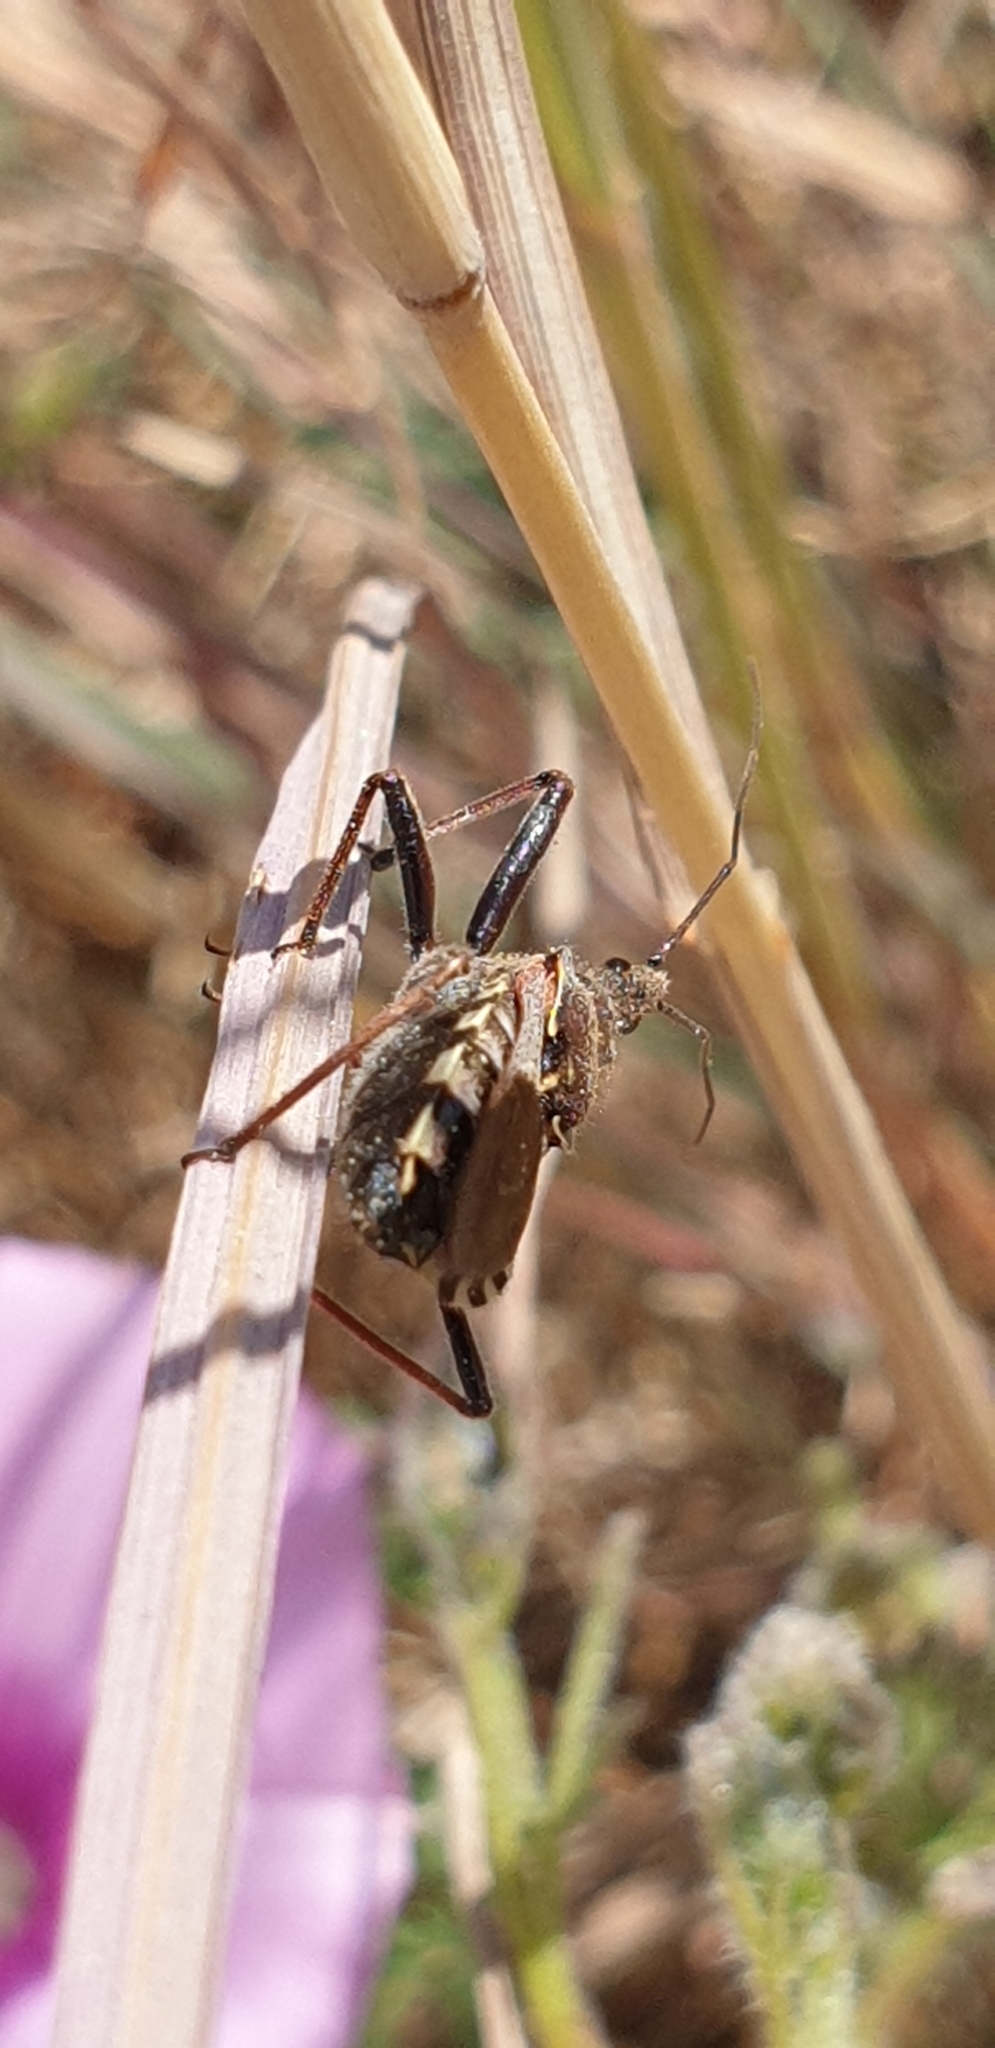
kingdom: Animalia
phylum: Arthropoda
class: Insecta
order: Hemiptera
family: Reduviidae
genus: Rhynocoris
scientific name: Rhynocoris erythropus
